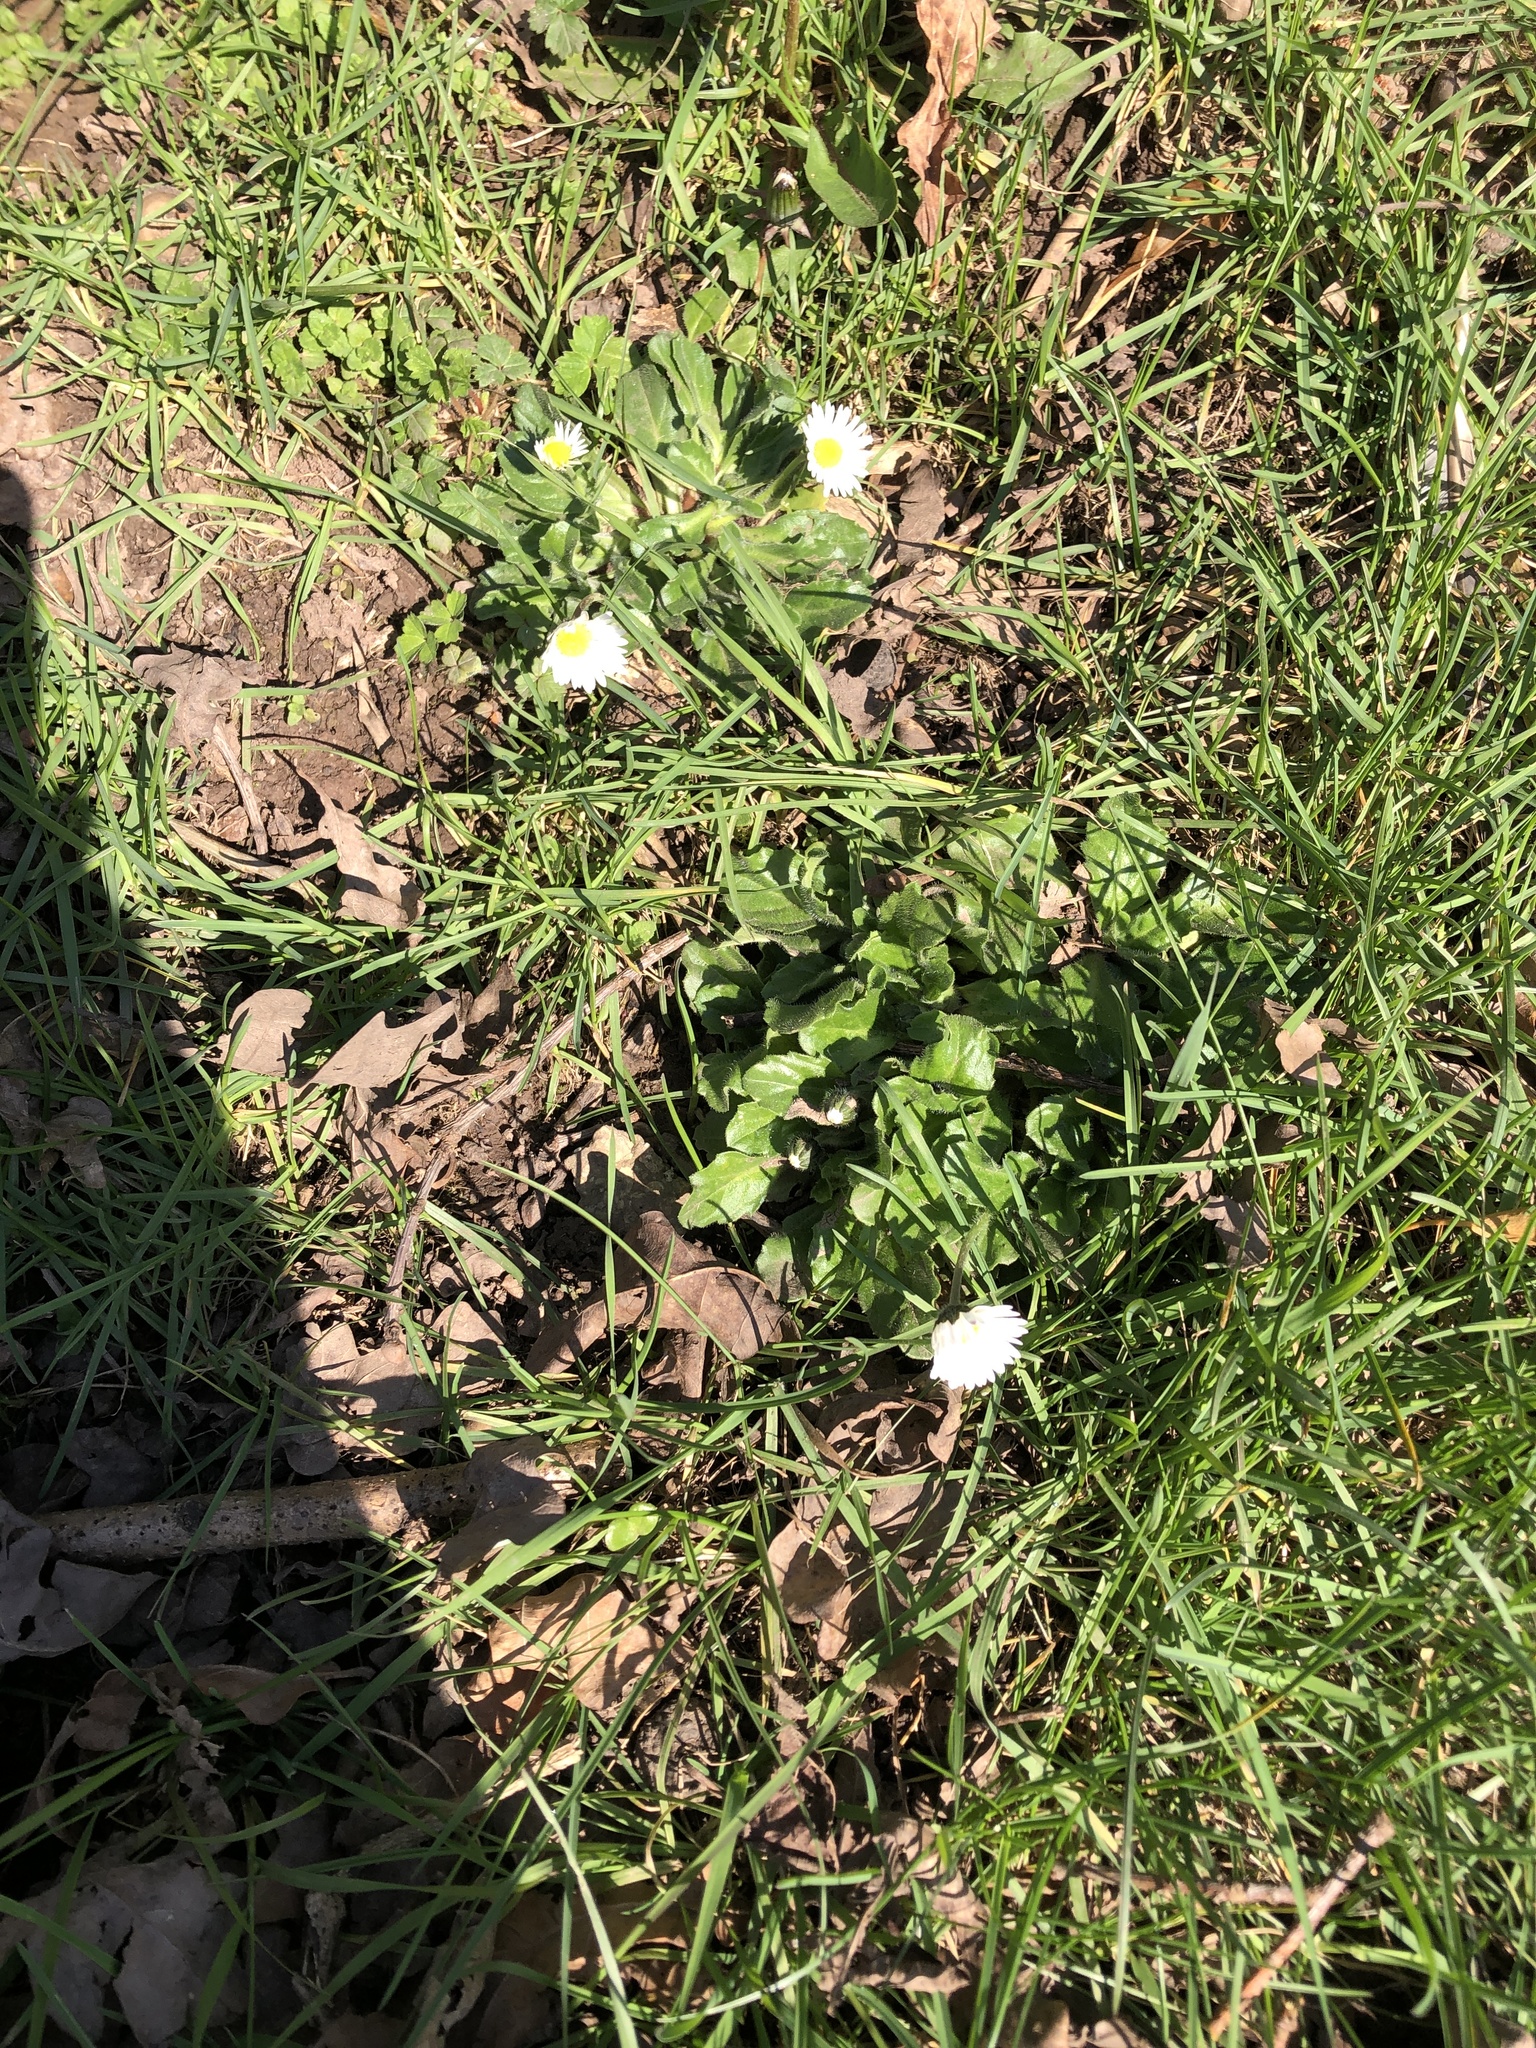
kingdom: Plantae
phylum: Tracheophyta
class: Magnoliopsida
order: Asterales
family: Asteraceae
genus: Bellis
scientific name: Bellis perennis
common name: Lawndaisy
